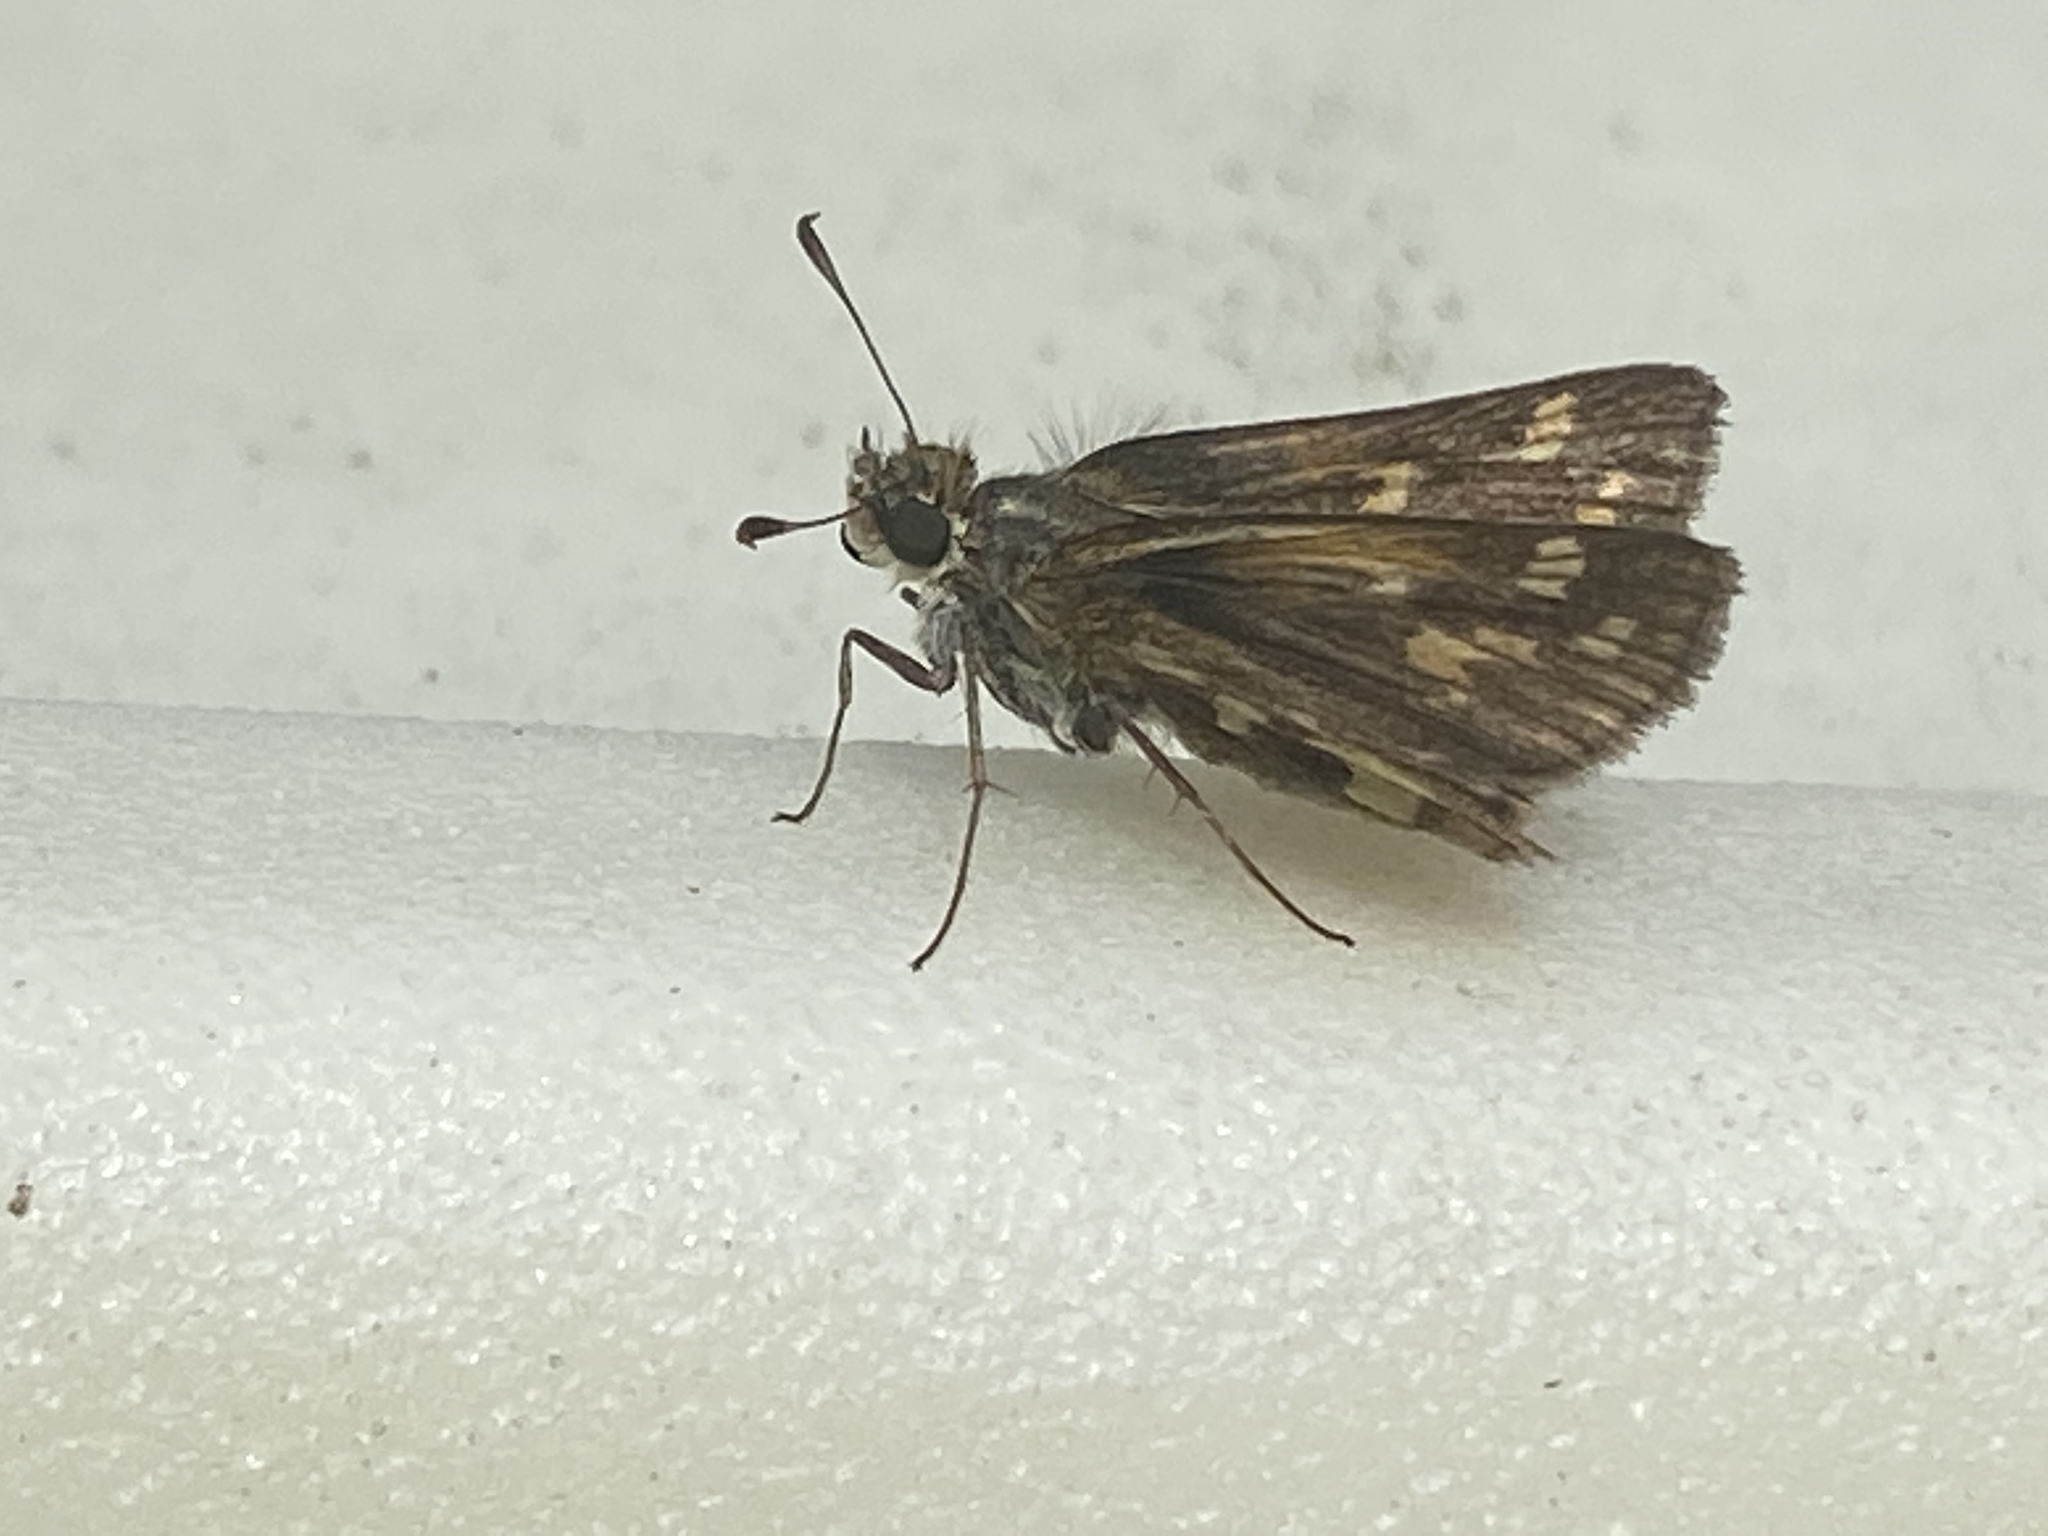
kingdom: Animalia
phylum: Arthropoda
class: Insecta
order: Lepidoptera
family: Hesperiidae
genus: Polites
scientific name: Polites coras
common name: Peck's skipper
